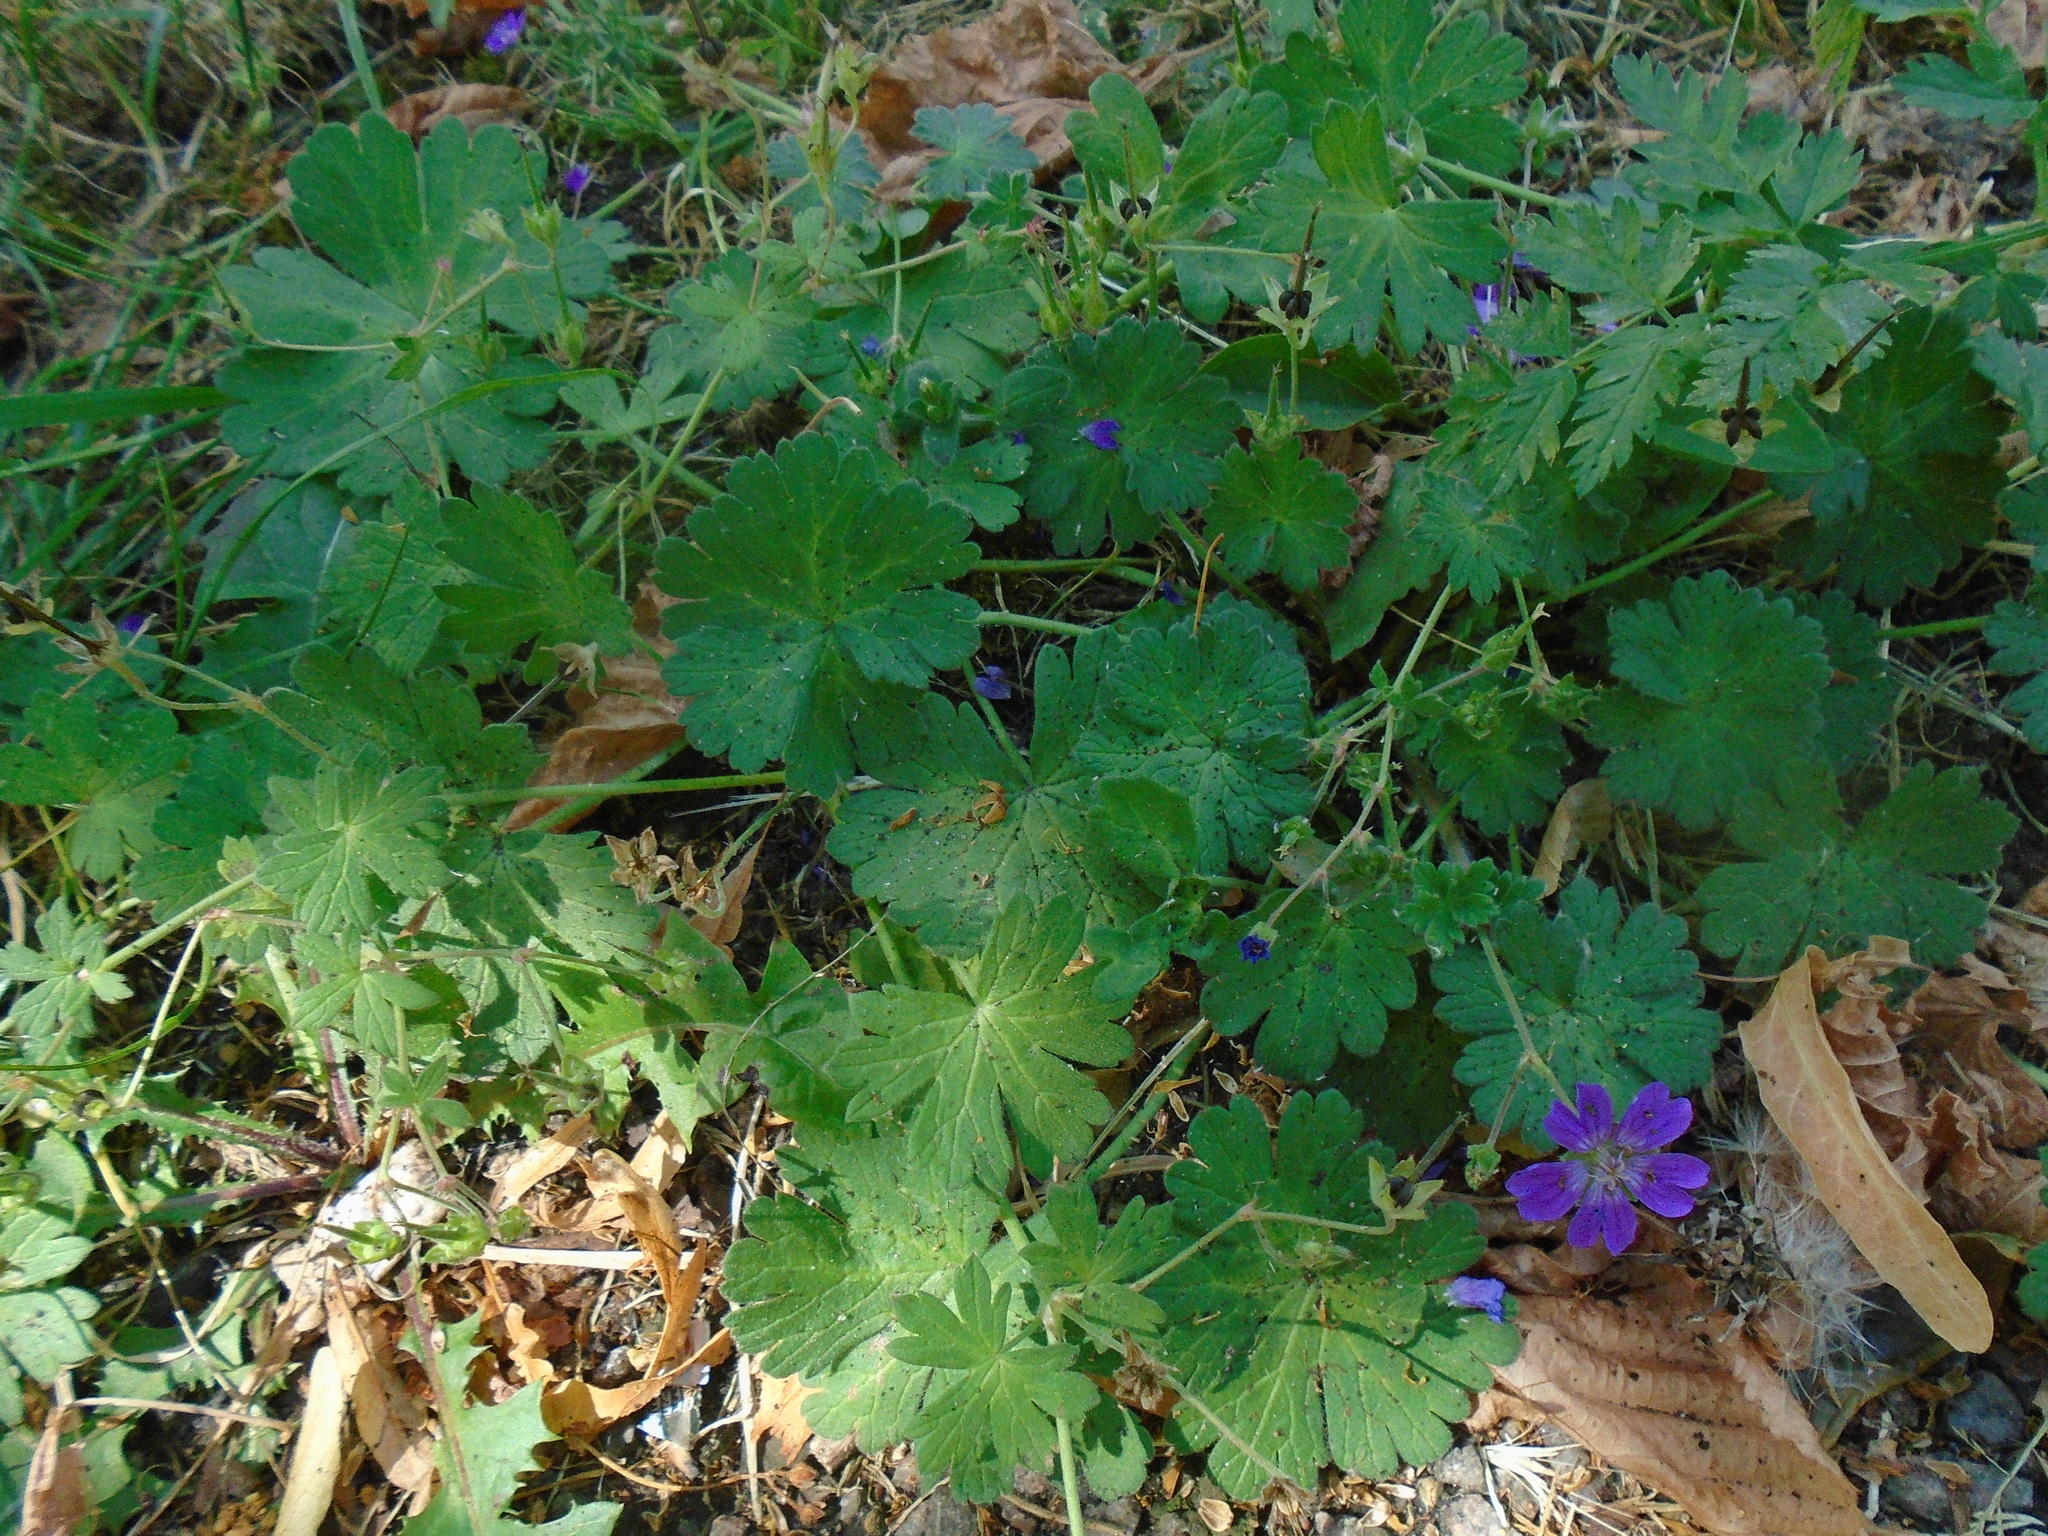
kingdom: Plantae
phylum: Tracheophyta
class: Magnoliopsida
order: Geraniales
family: Geraniaceae
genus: Geranium
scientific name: Geranium pyrenaicum
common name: Hedgerow crane's-bill
